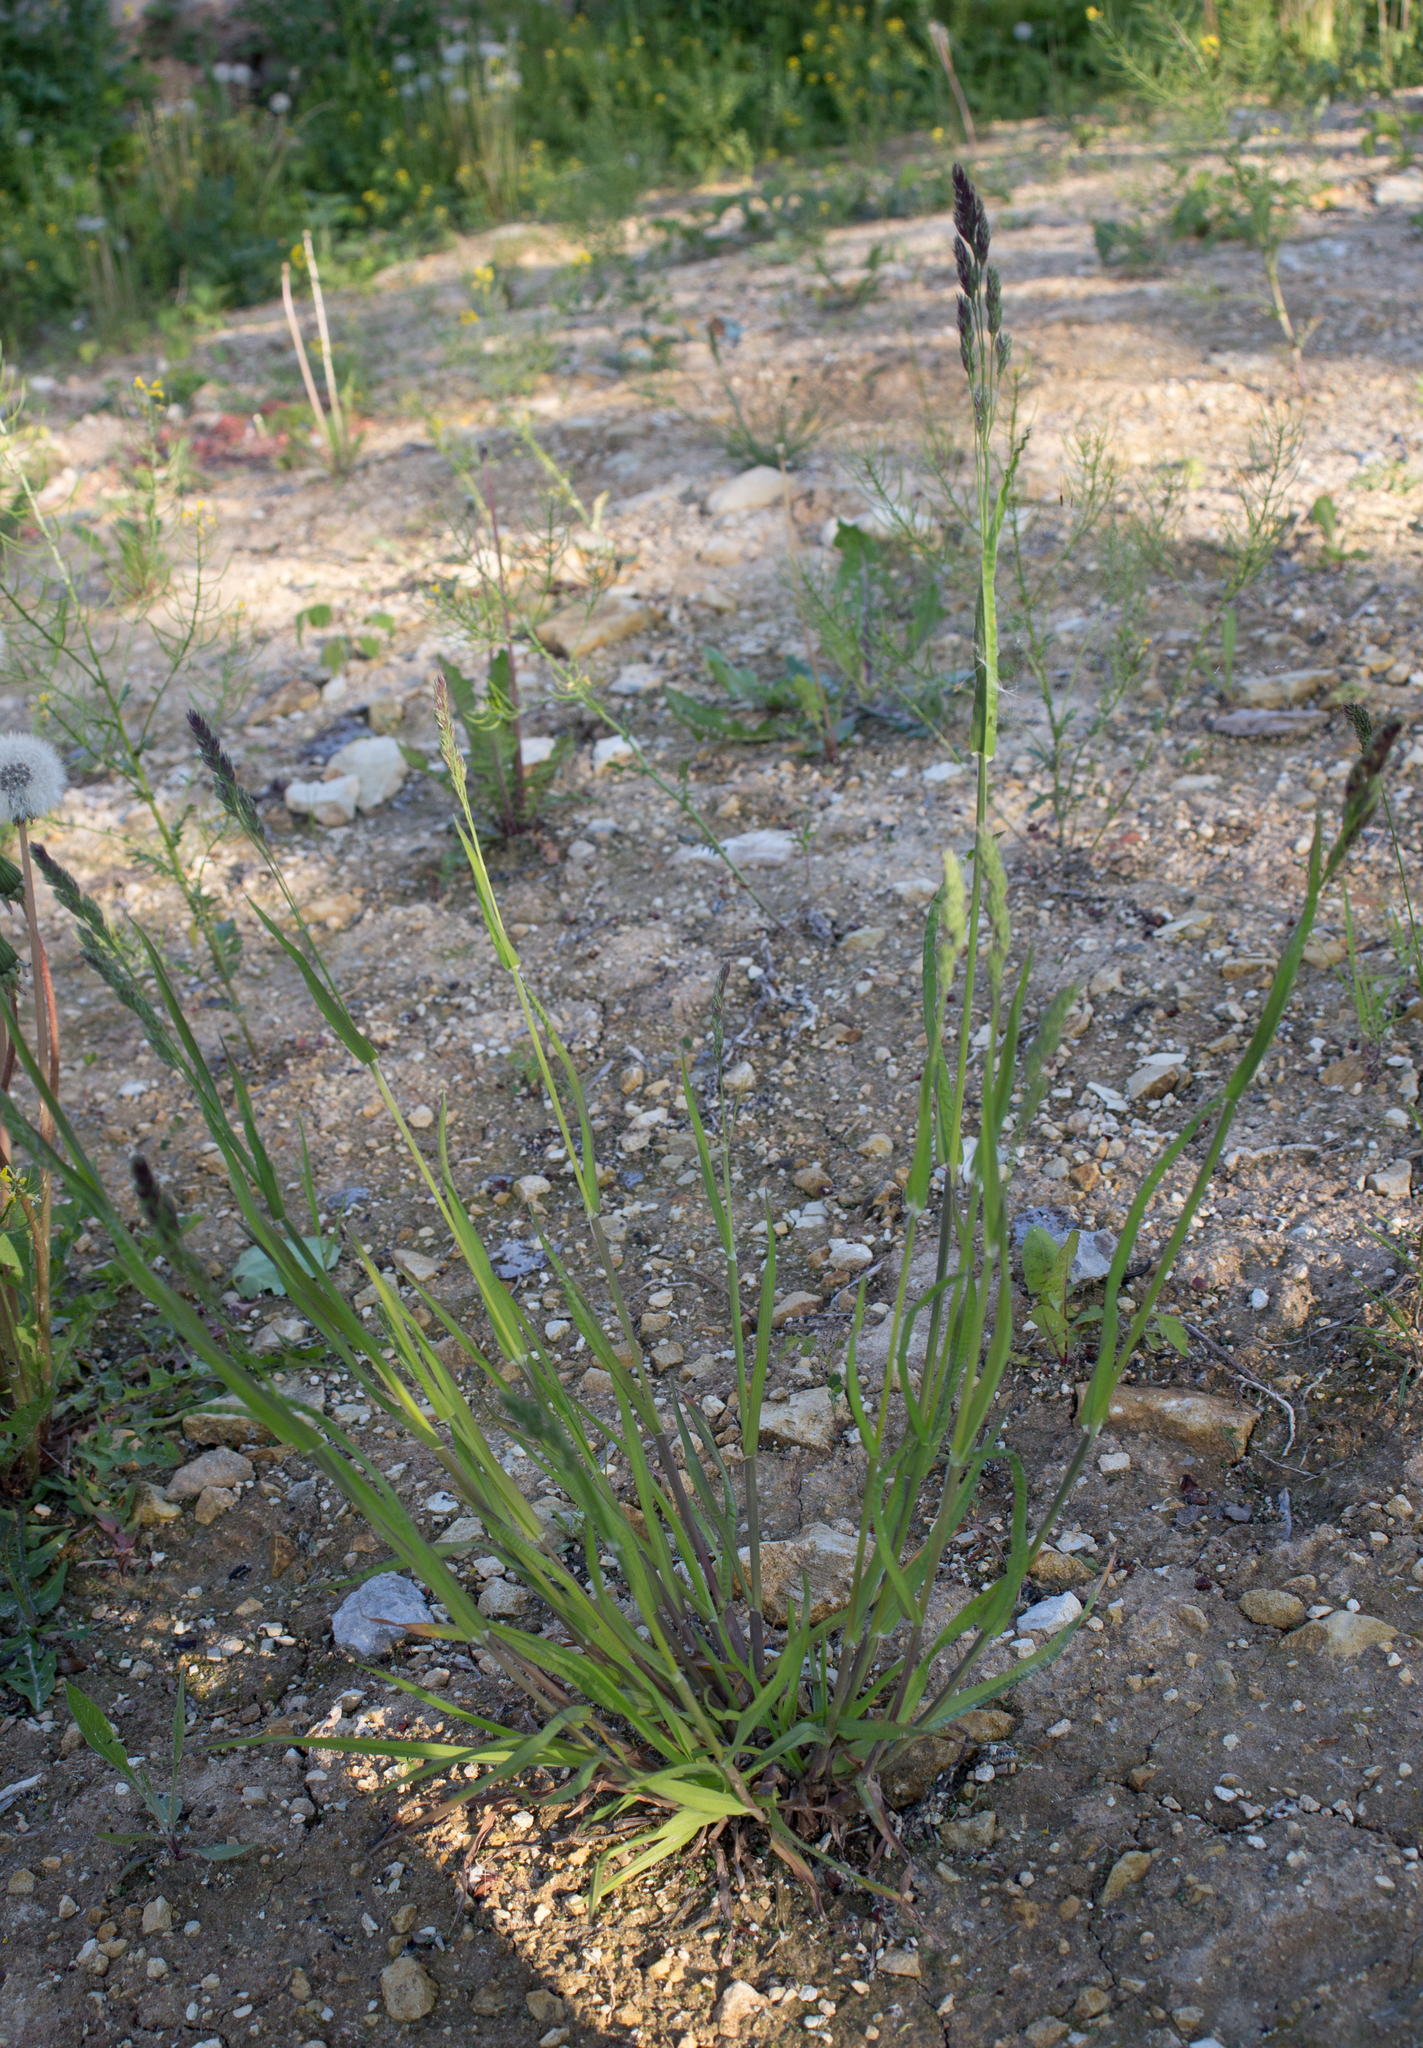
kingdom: Plantae
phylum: Tracheophyta
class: Liliopsida
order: Poales
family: Poaceae
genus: Dactylis
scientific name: Dactylis glomerata
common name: Orchardgrass
